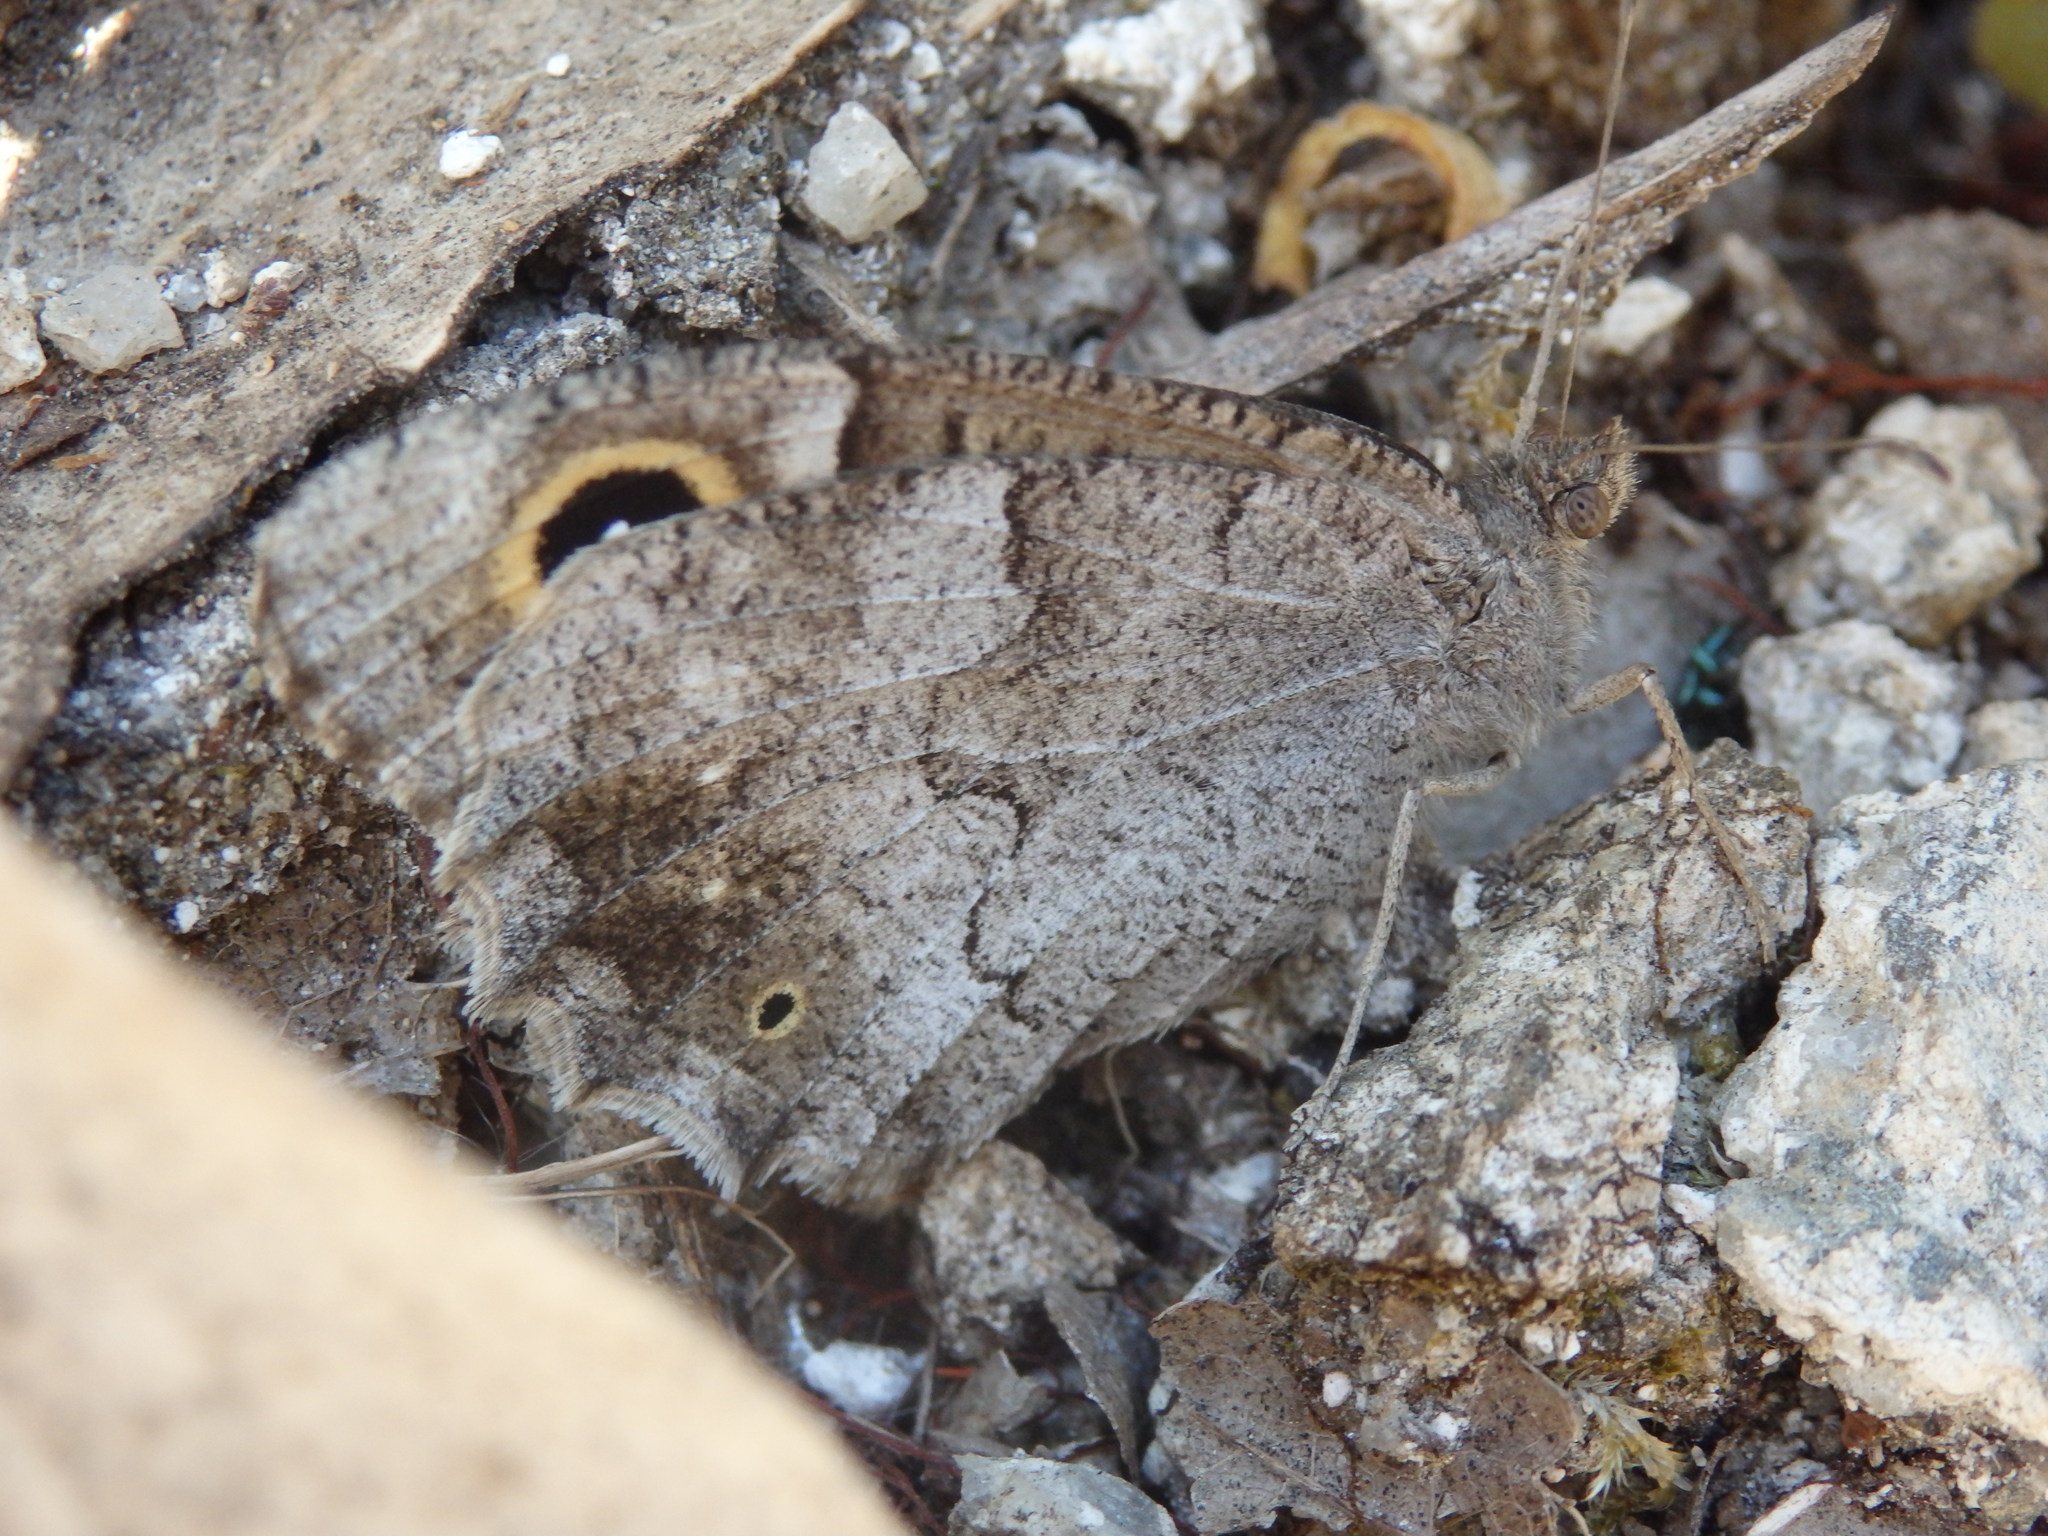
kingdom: Animalia
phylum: Arthropoda
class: Insecta
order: Lepidoptera
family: Nymphalidae
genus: Hipparchia
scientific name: Hipparchia statilinus
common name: Tree grayling
